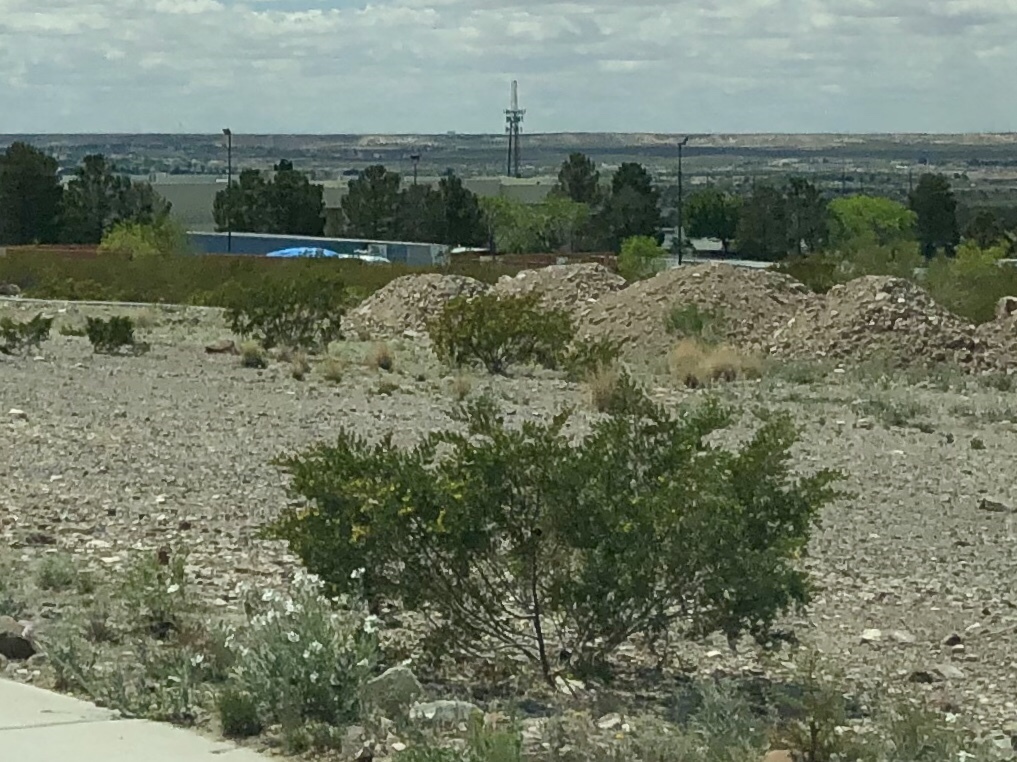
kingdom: Plantae
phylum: Tracheophyta
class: Magnoliopsida
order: Zygophyllales
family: Zygophyllaceae
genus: Larrea
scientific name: Larrea tridentata
